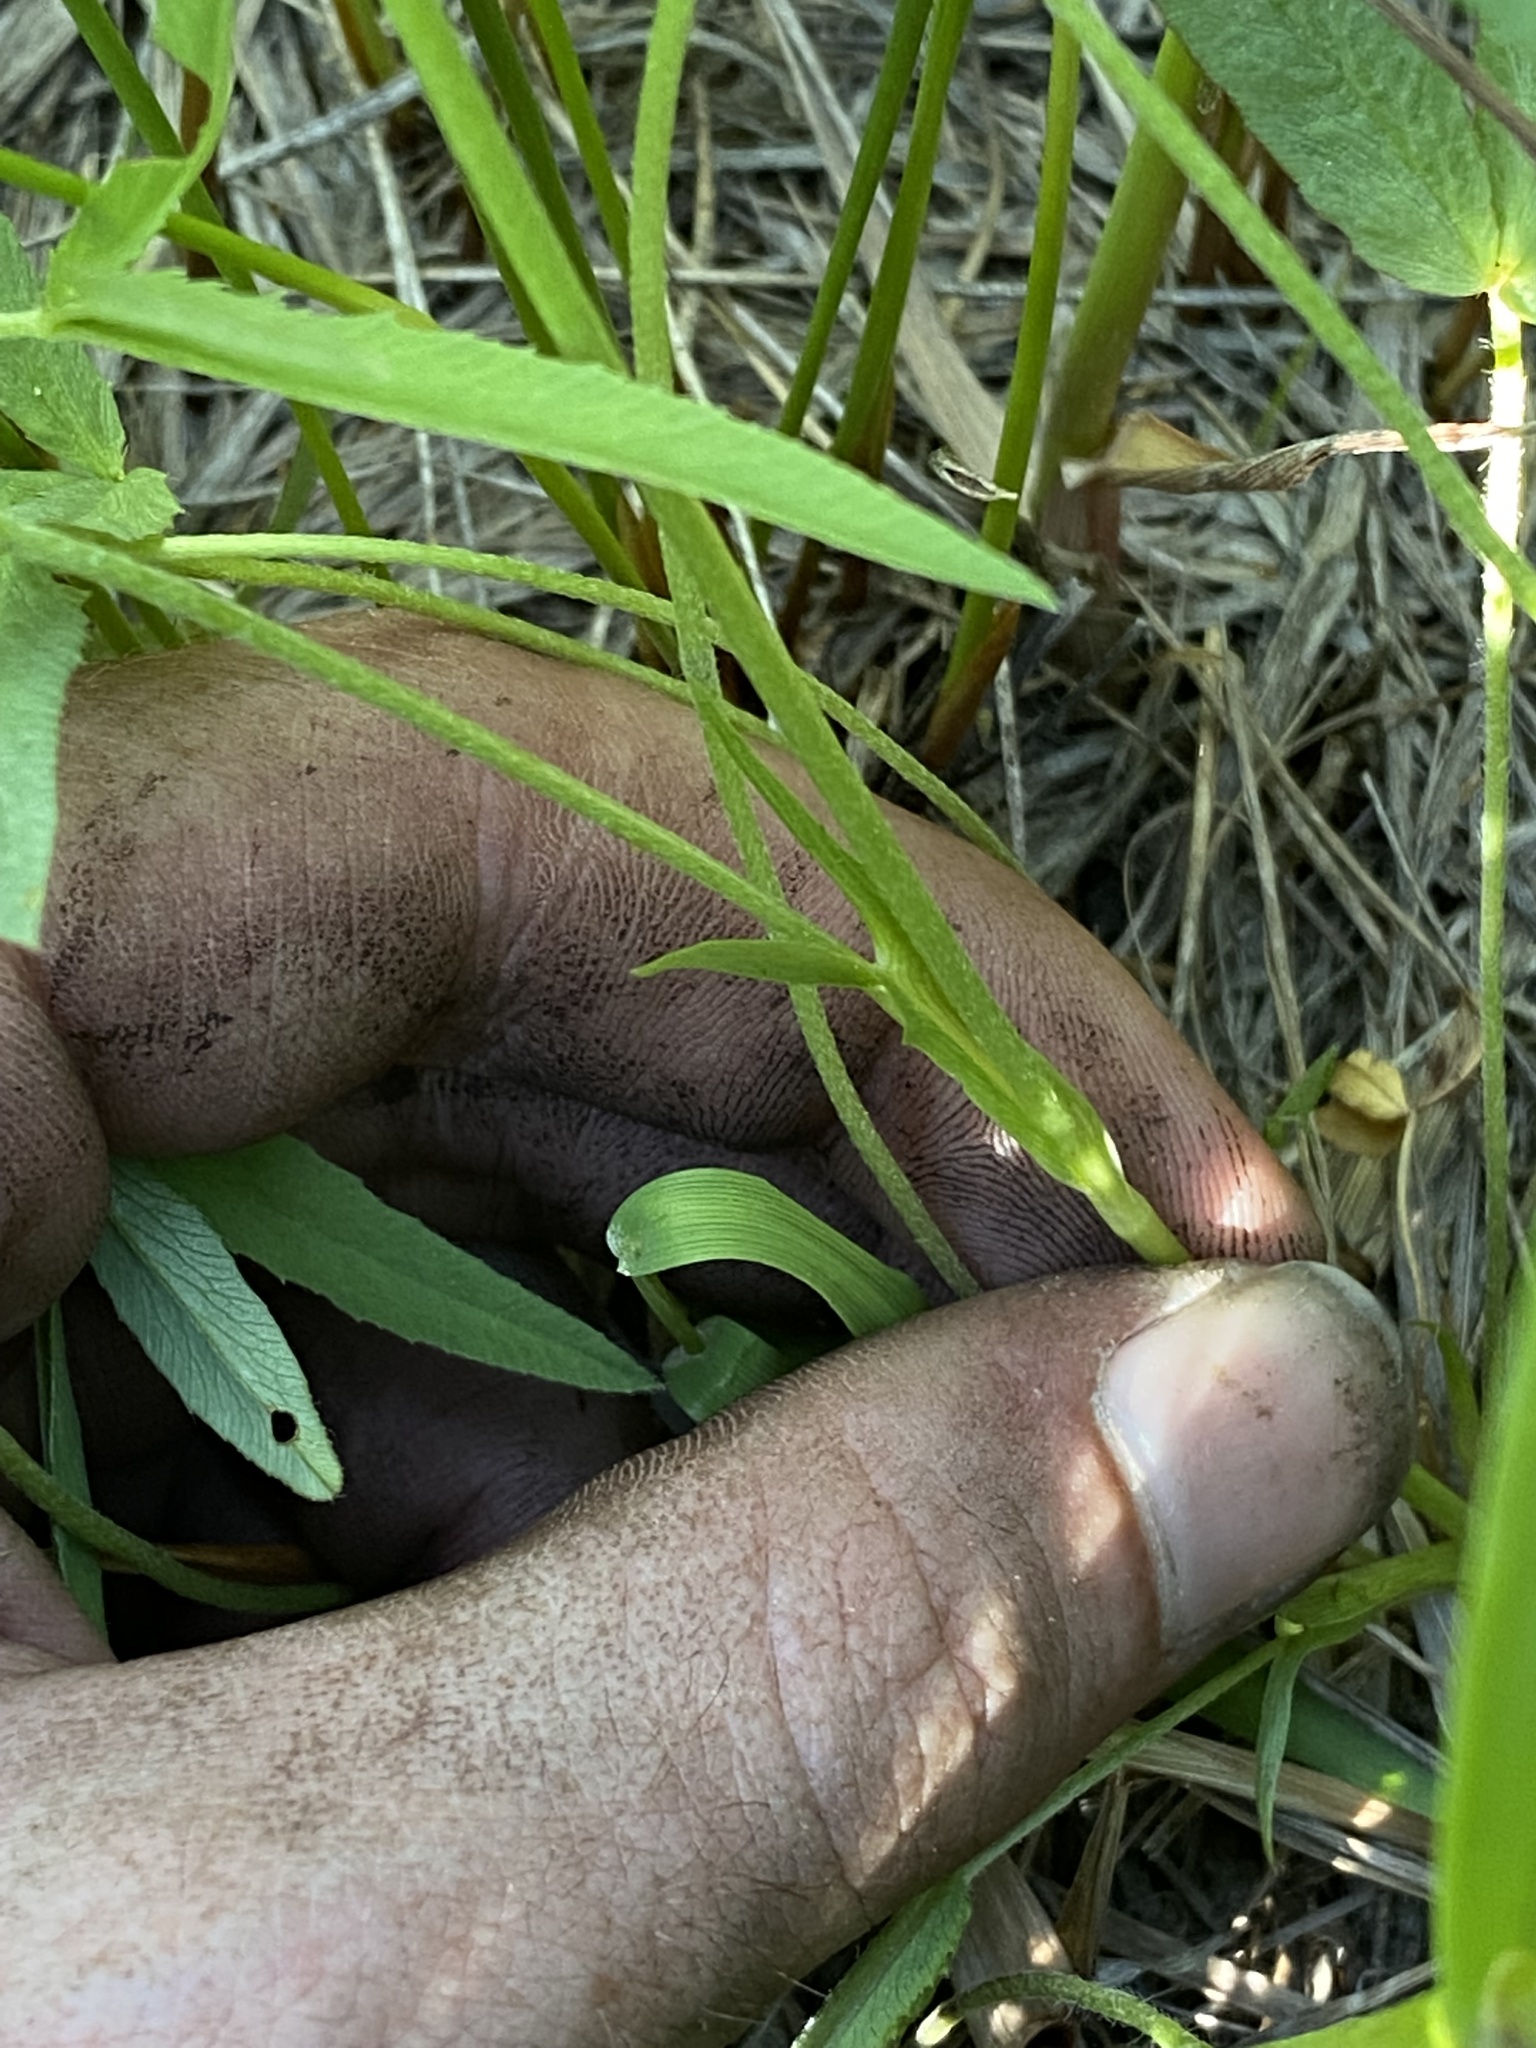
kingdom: Plantae
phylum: Tracheophyta
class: Magnoliopsida
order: Fabales
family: Fabaceae
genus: Trifolium
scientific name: Trifolium longipes
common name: Long-stalk clover
